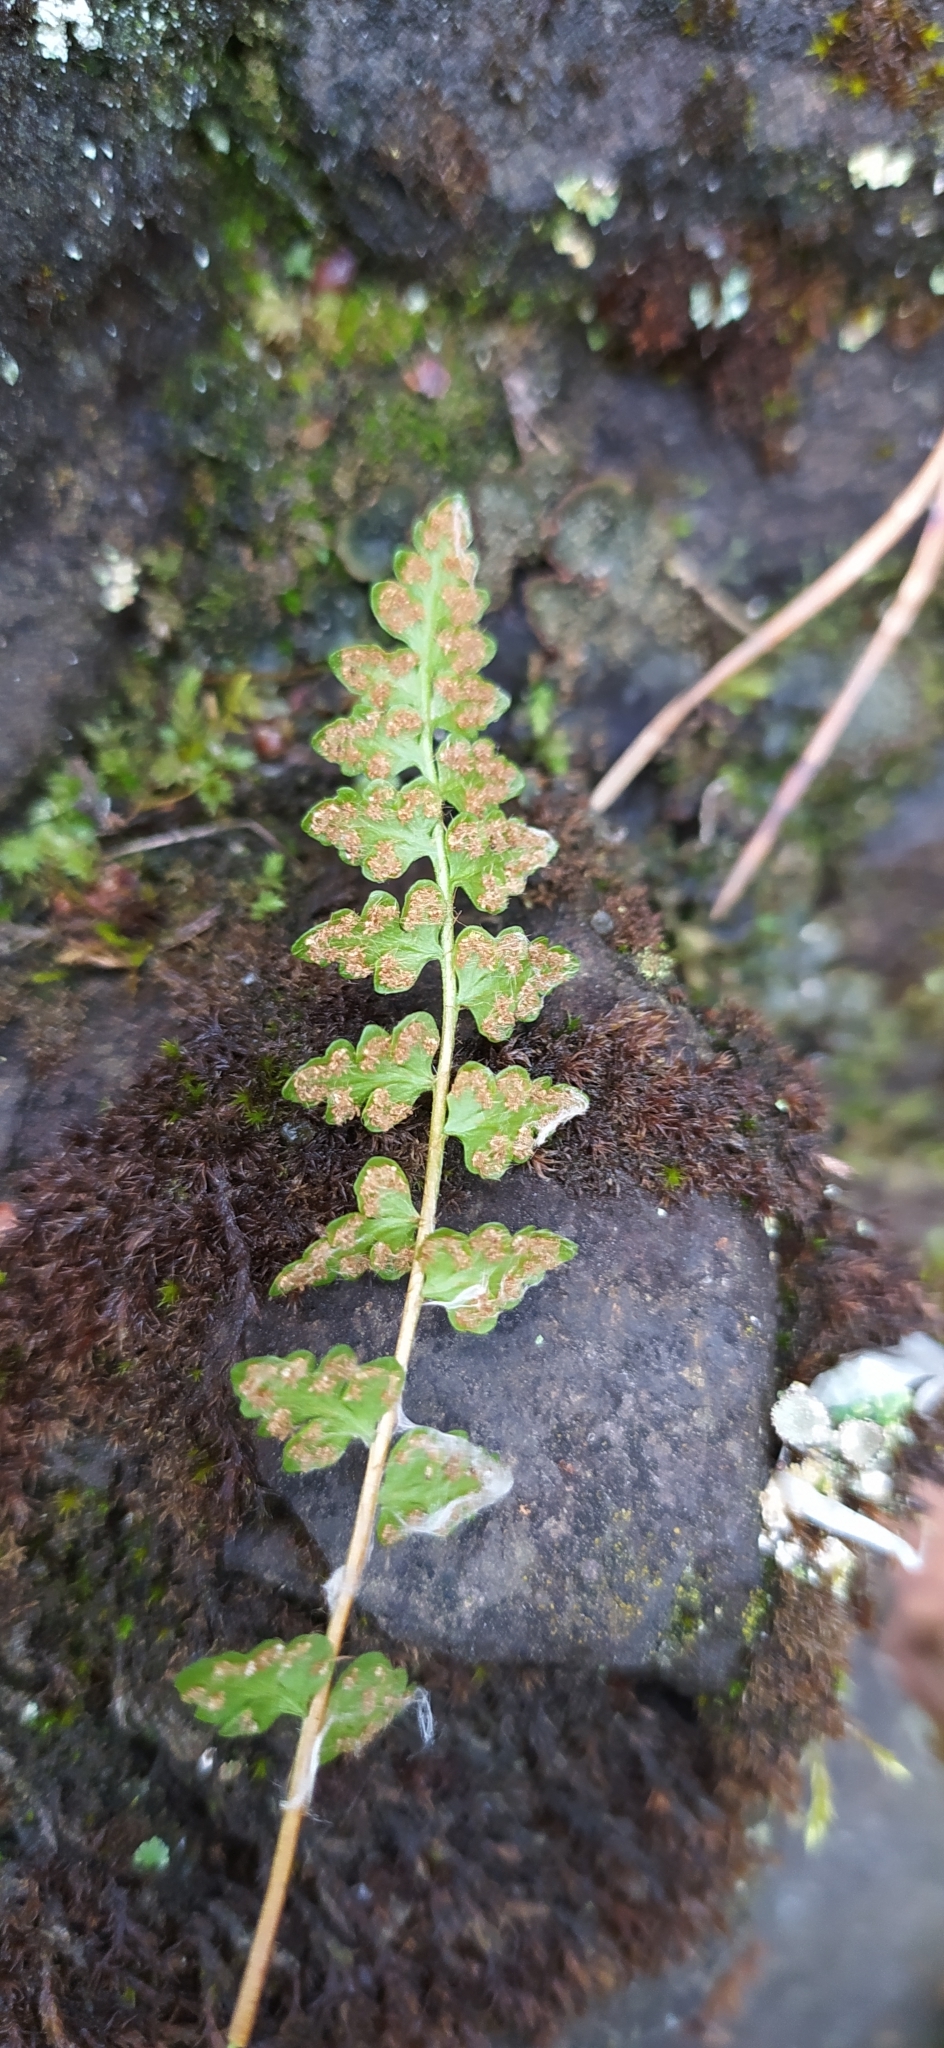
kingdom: Plantae
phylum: Tracheophyta
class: Polypodiopsida
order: Polypodiales
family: Woodsiaceae
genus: Woodsia
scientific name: Woodsia alpina
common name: Alpine woodsia
